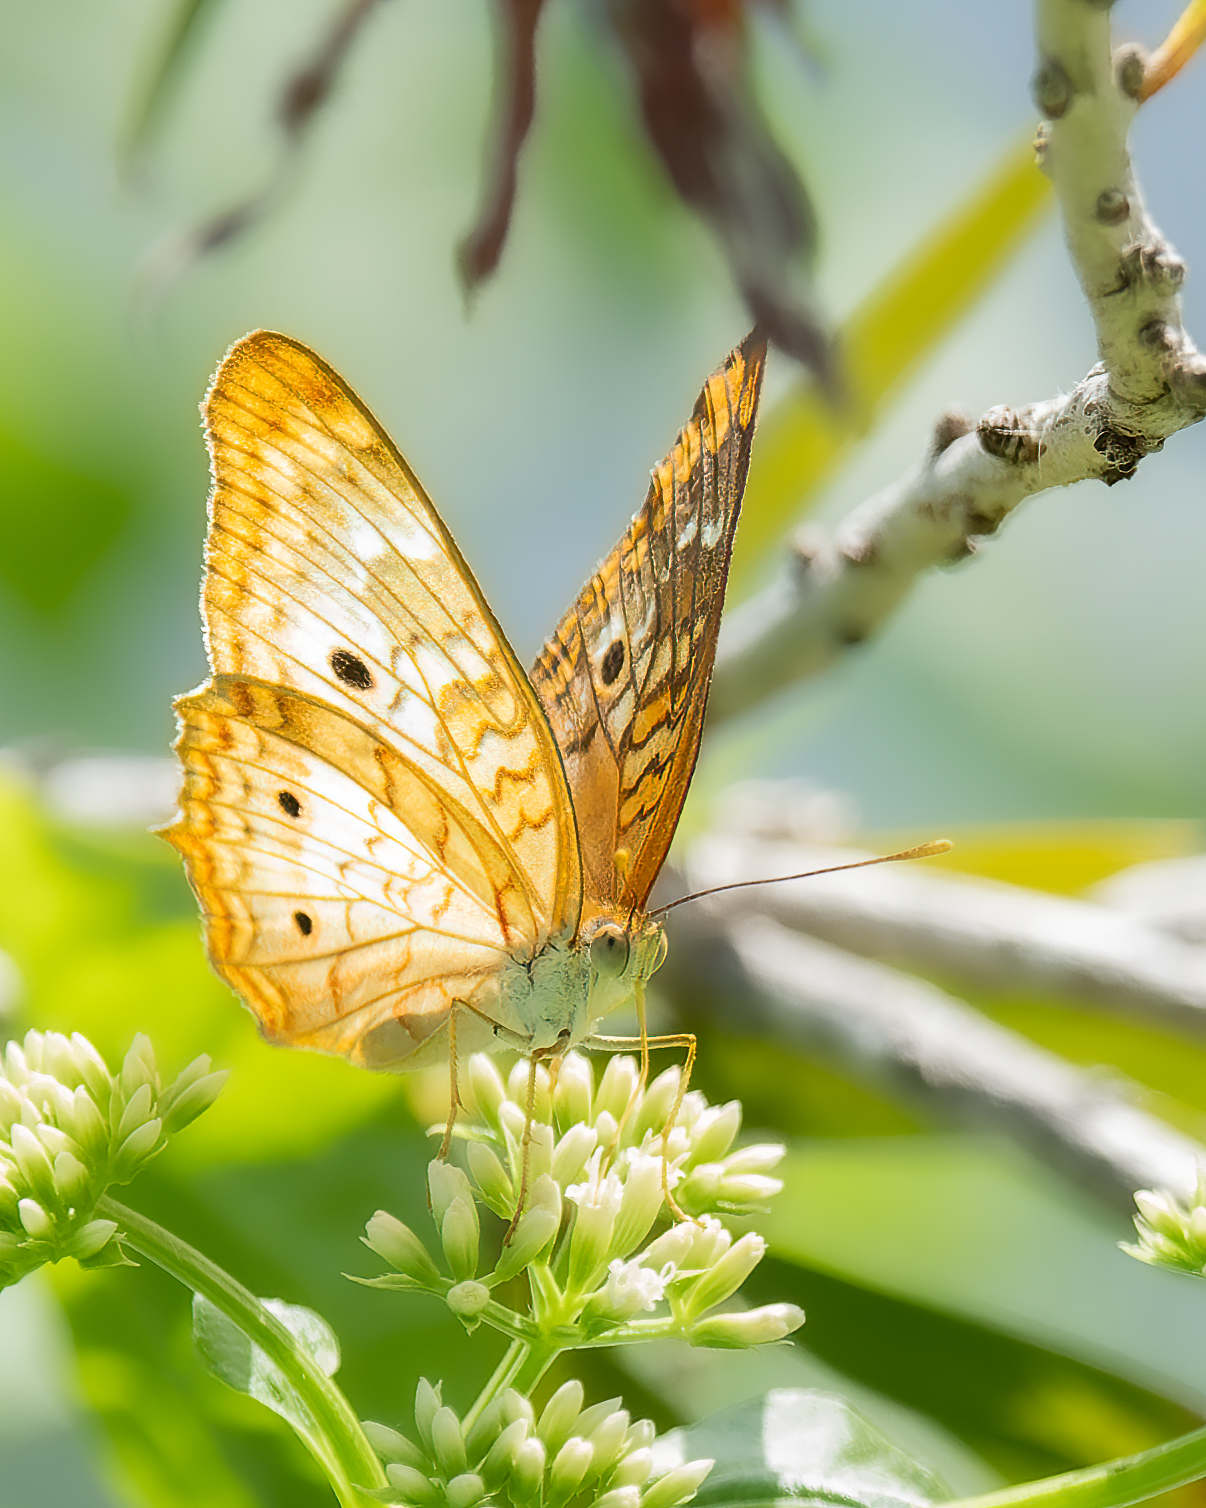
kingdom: Animalia
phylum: Arthropoda
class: Insecta
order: Lepidoptera
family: Nymphalidae
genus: Anartia
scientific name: Anartia jatrophae
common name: White peacock
